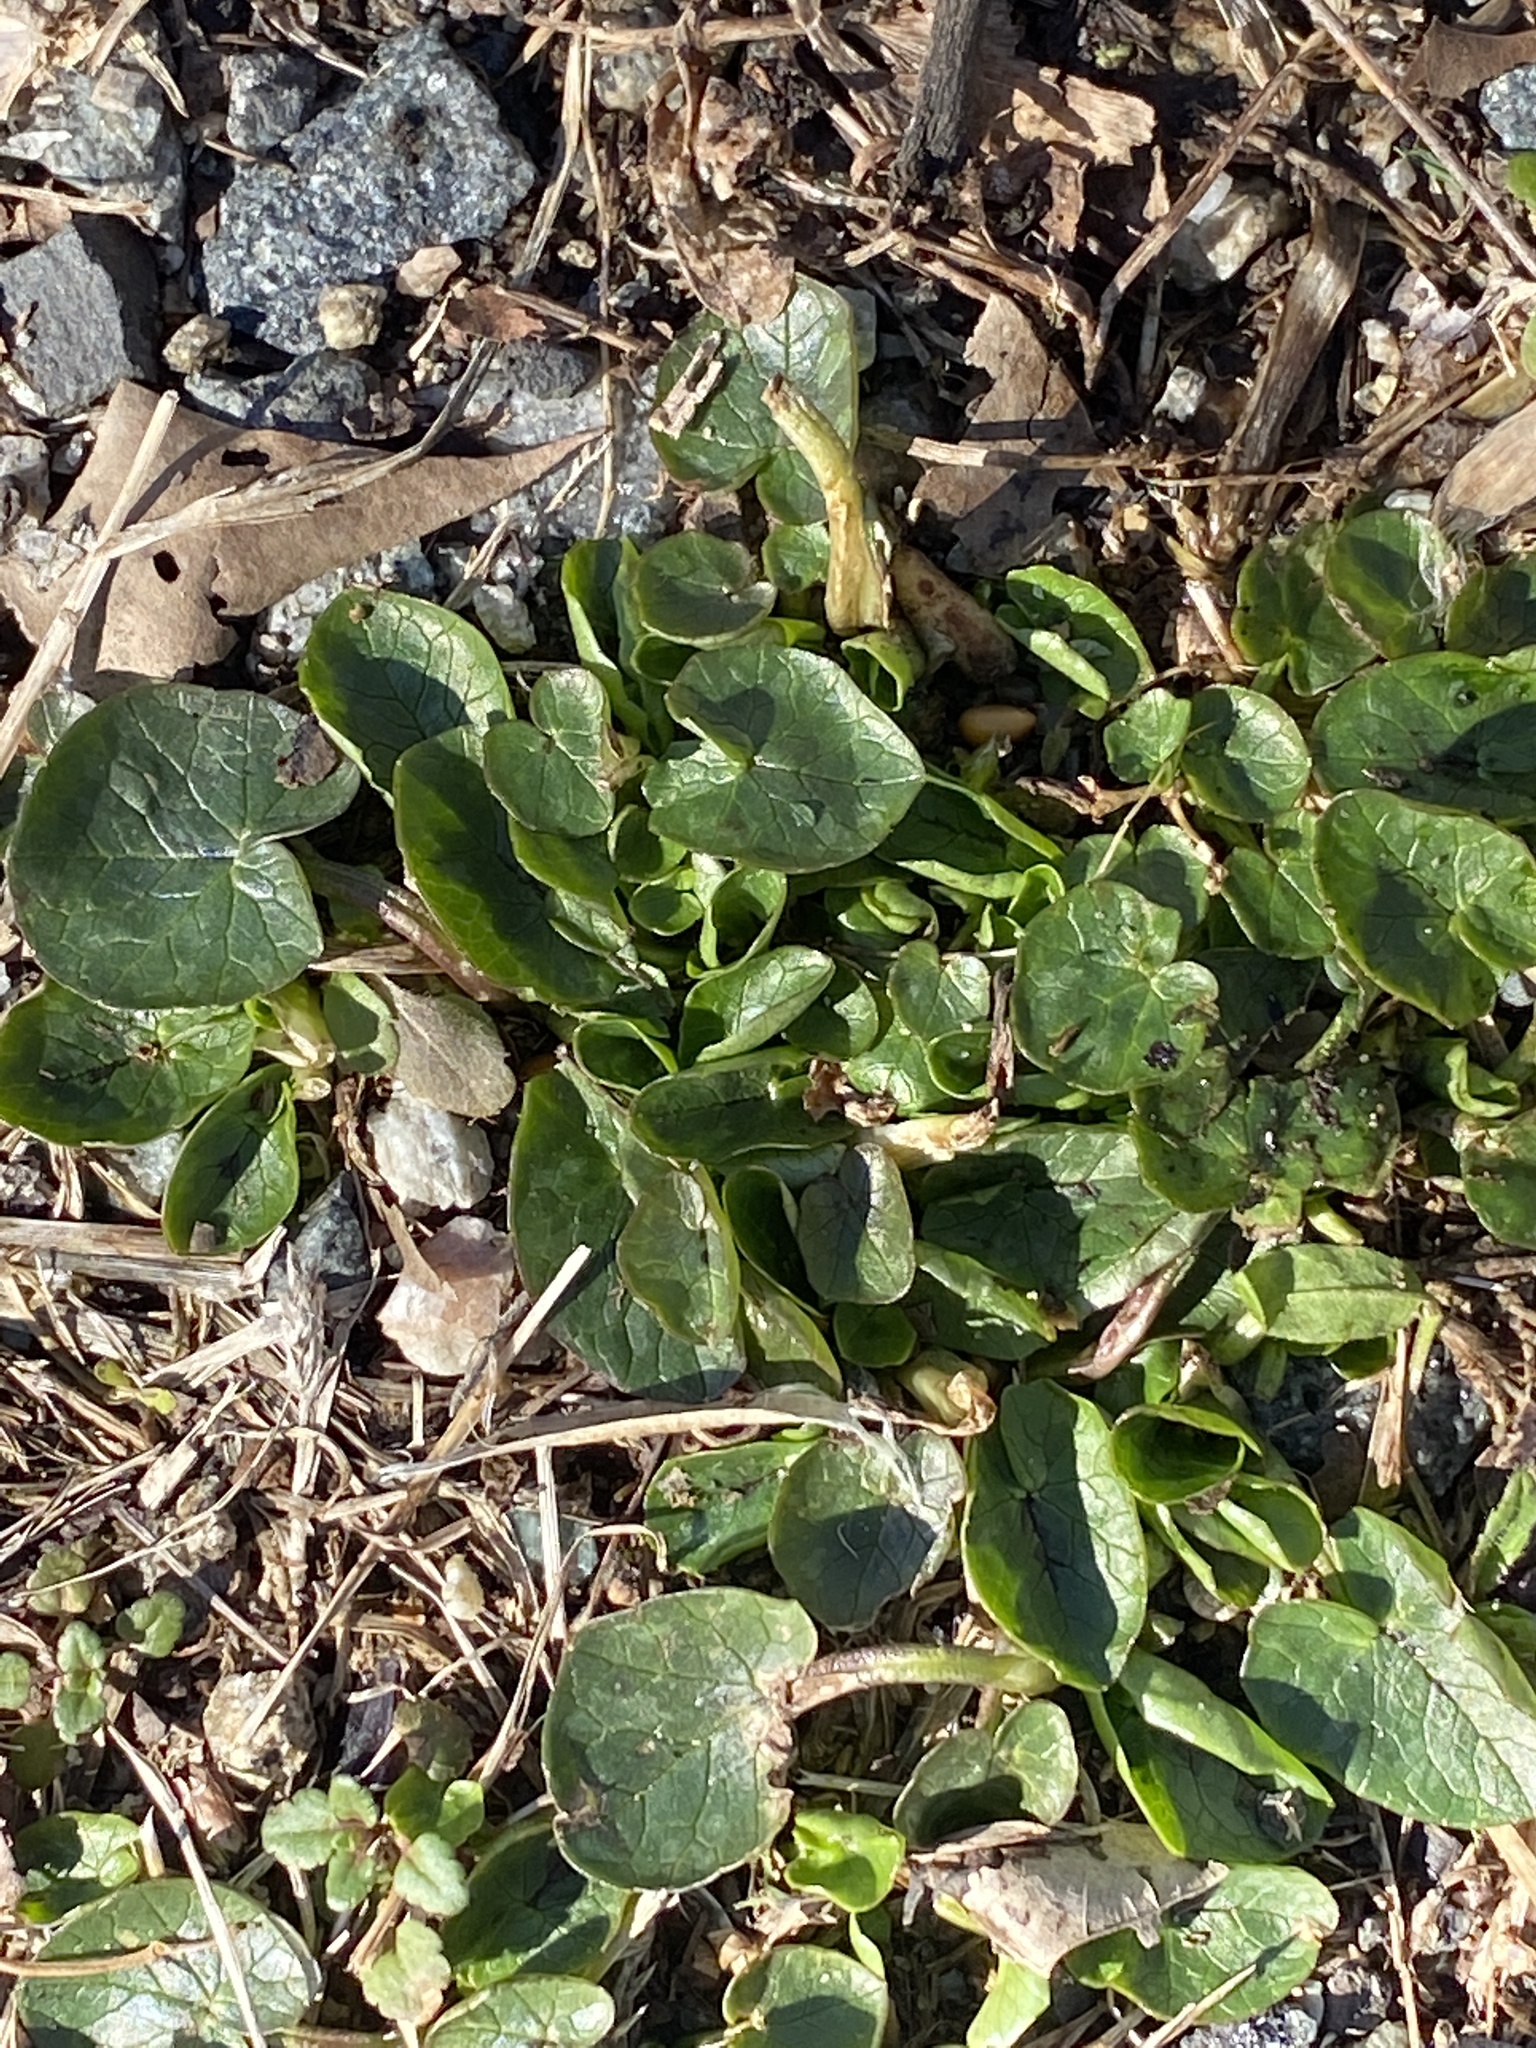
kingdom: Plantae
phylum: Tracheophyta
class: Magnoliopsida
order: Ranunculales
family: Ranunculaceae
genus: Ficaria
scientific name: Ficaria verna
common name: Lesser celandine
